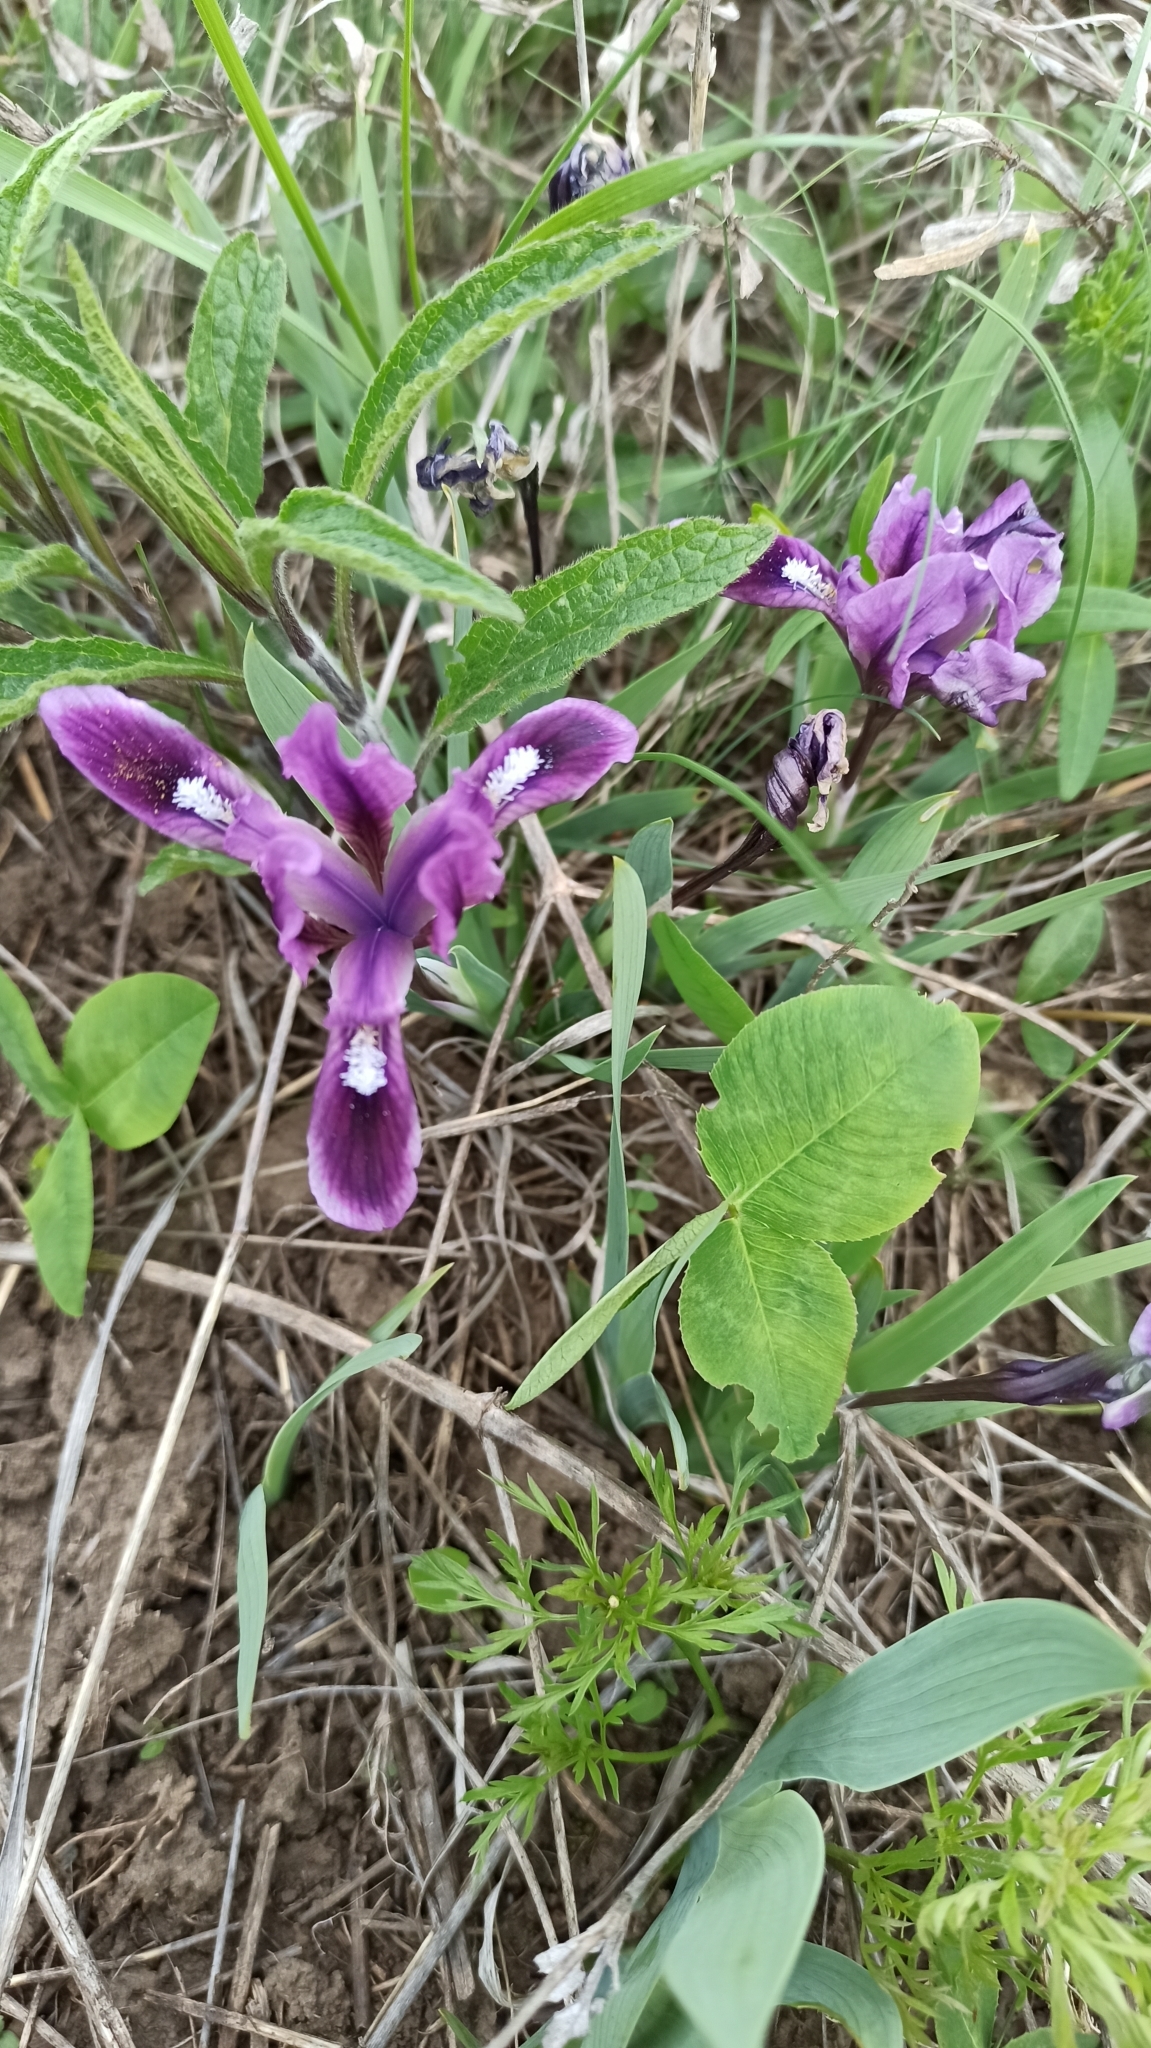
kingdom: Plantae
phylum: Tracheophyta
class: Liliopsida
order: Asparagales
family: Iridaceae
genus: Iris
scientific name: Iris pumila
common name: Dwarf iris
